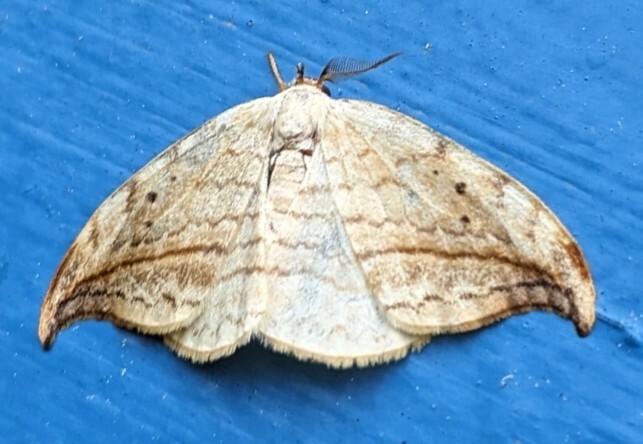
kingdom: Animalia
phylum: Arthropoda
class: Insecta
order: Lepidoptera
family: Drepanidae
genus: Drepana
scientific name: Drepana arcuata
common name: Arched hooktip moth
